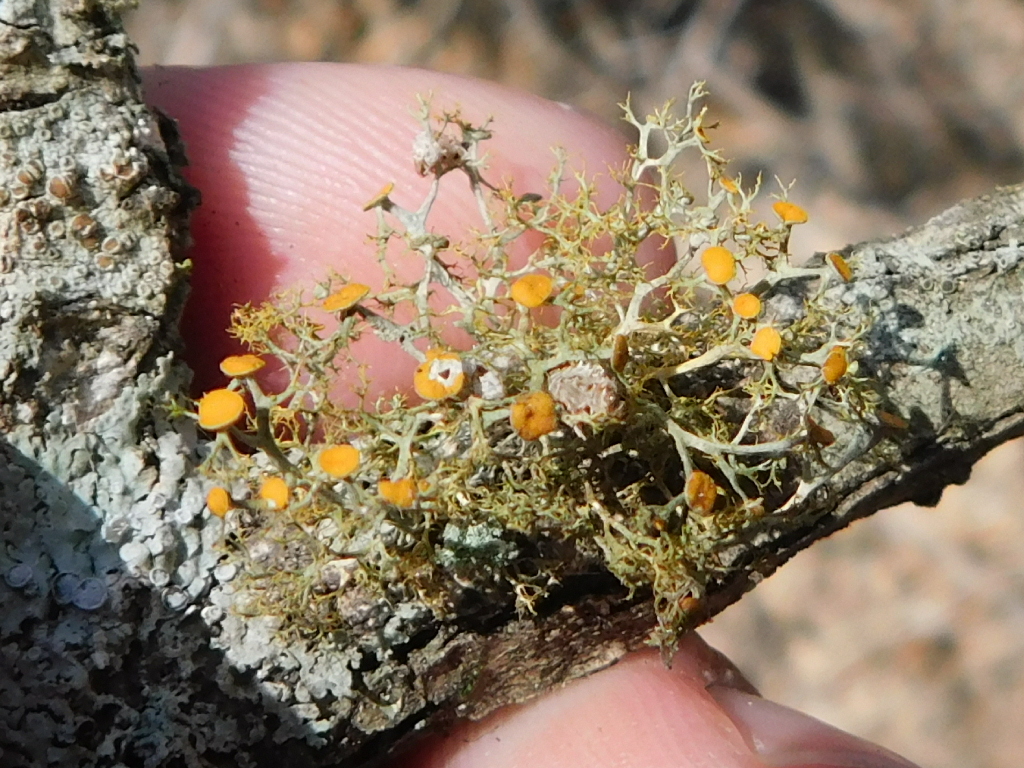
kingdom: Fungi
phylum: Ascomycota
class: Lecanoromycetes
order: Teloschistales
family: Teloschistaceae
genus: Teloschistes
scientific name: Teloschistes exilis
